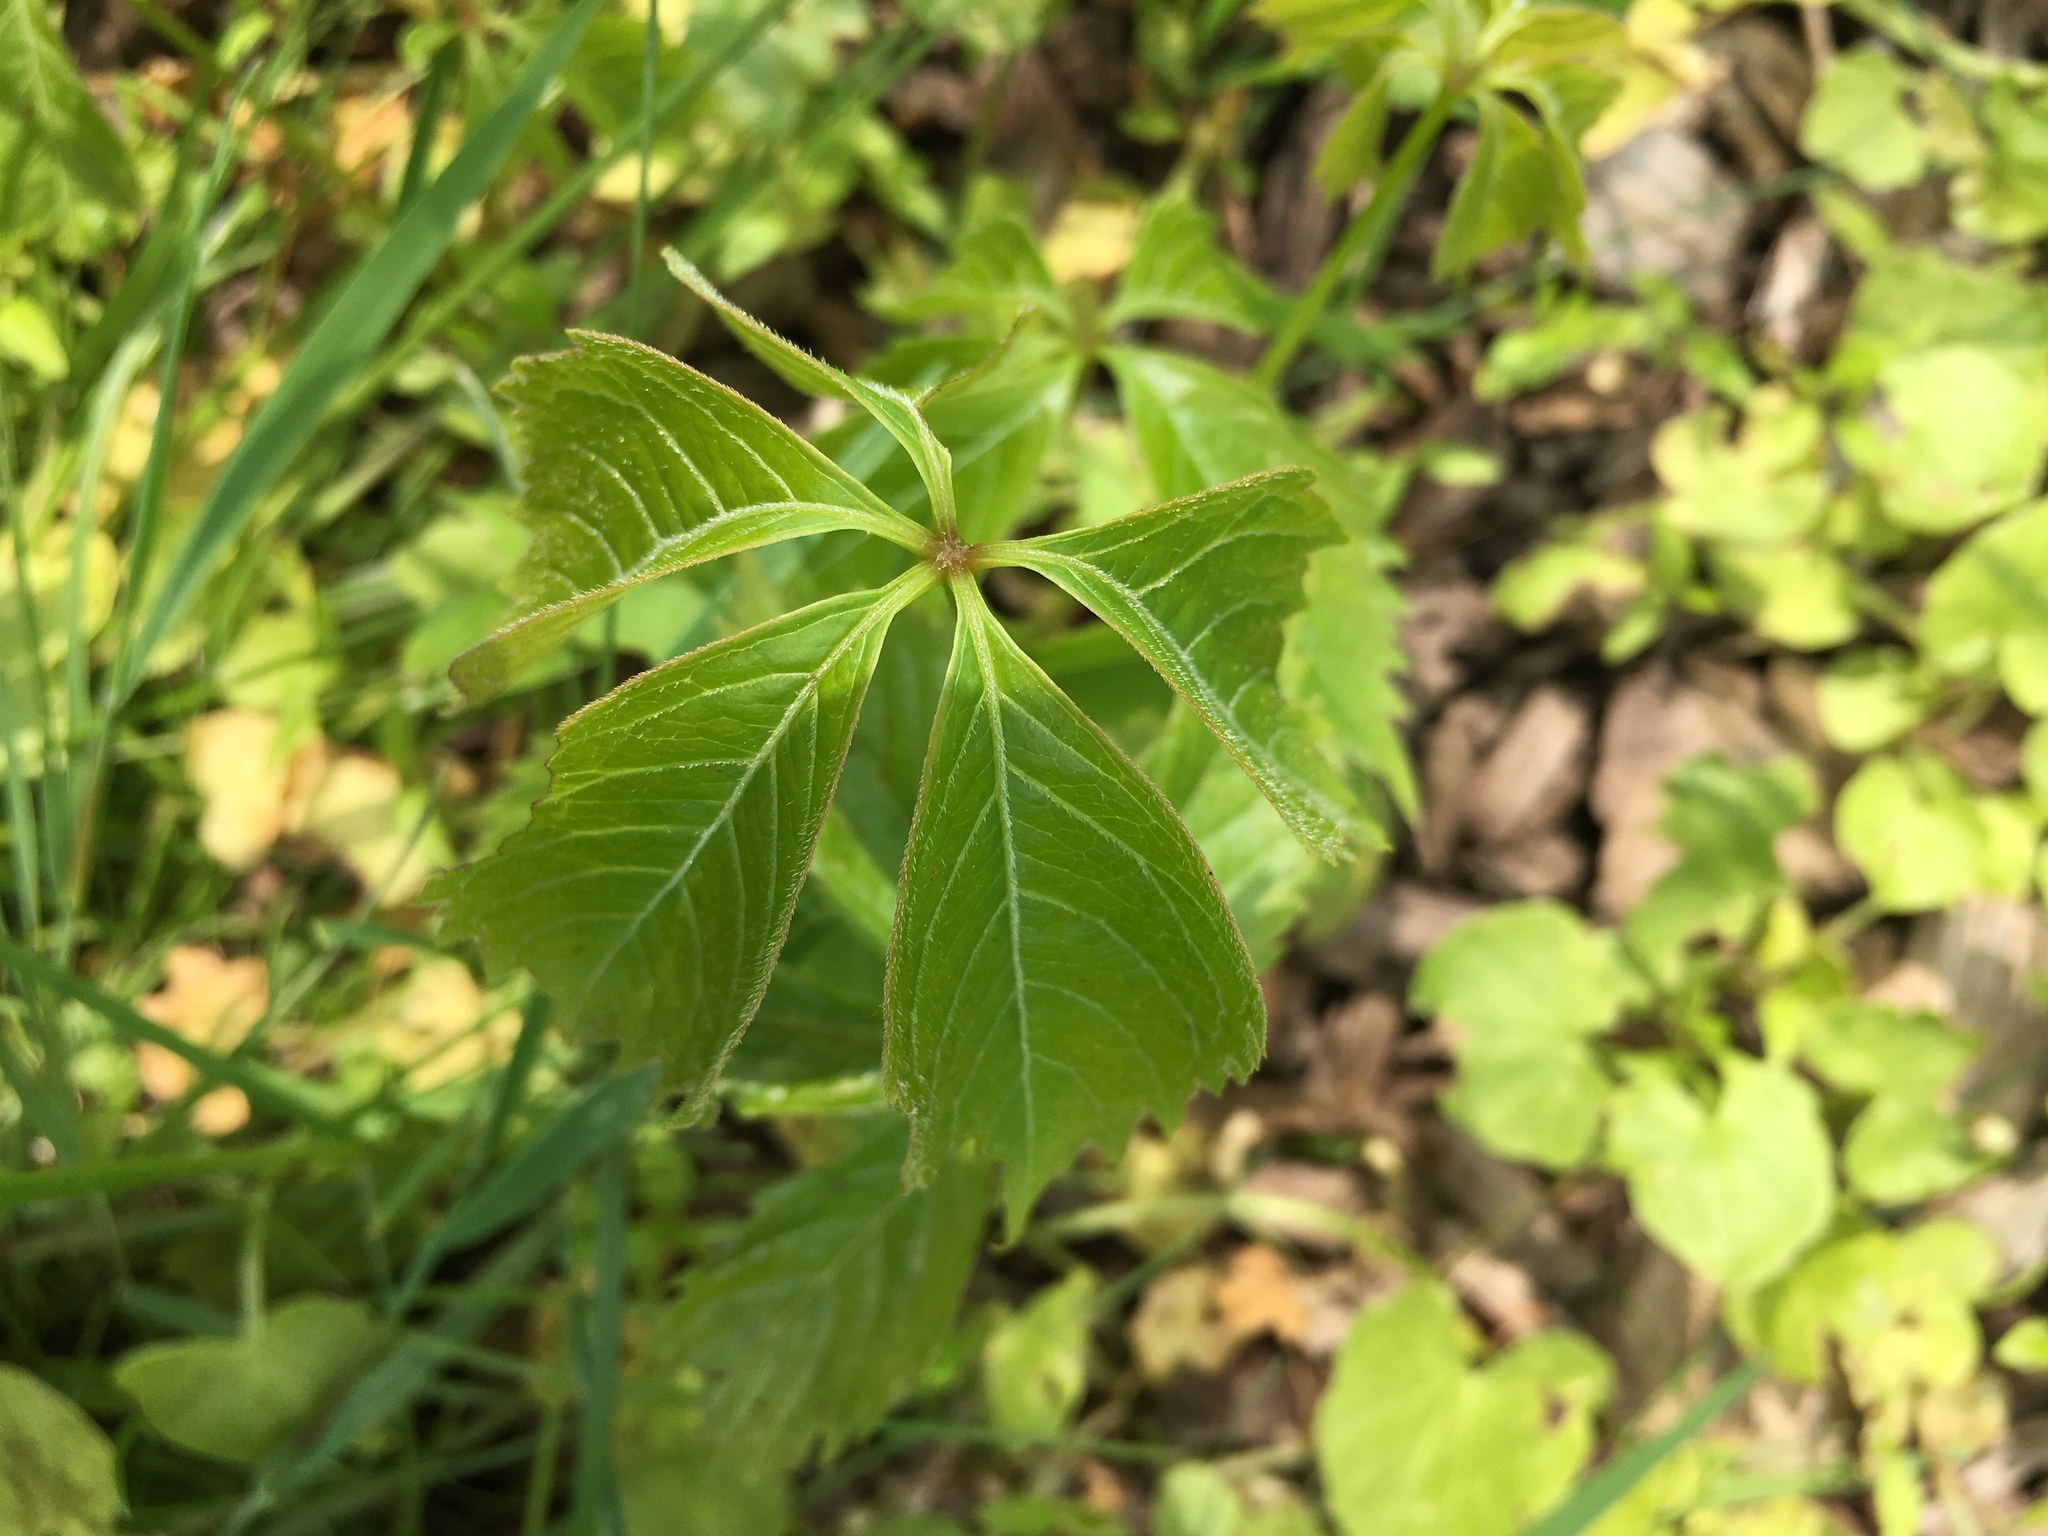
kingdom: Plantae
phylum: Tracheophyta
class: Magnoliopsida
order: Vitales
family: Vitaceae
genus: Parthenocissus
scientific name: Parthenocissus quinquefolia
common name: Virginia-creeper
